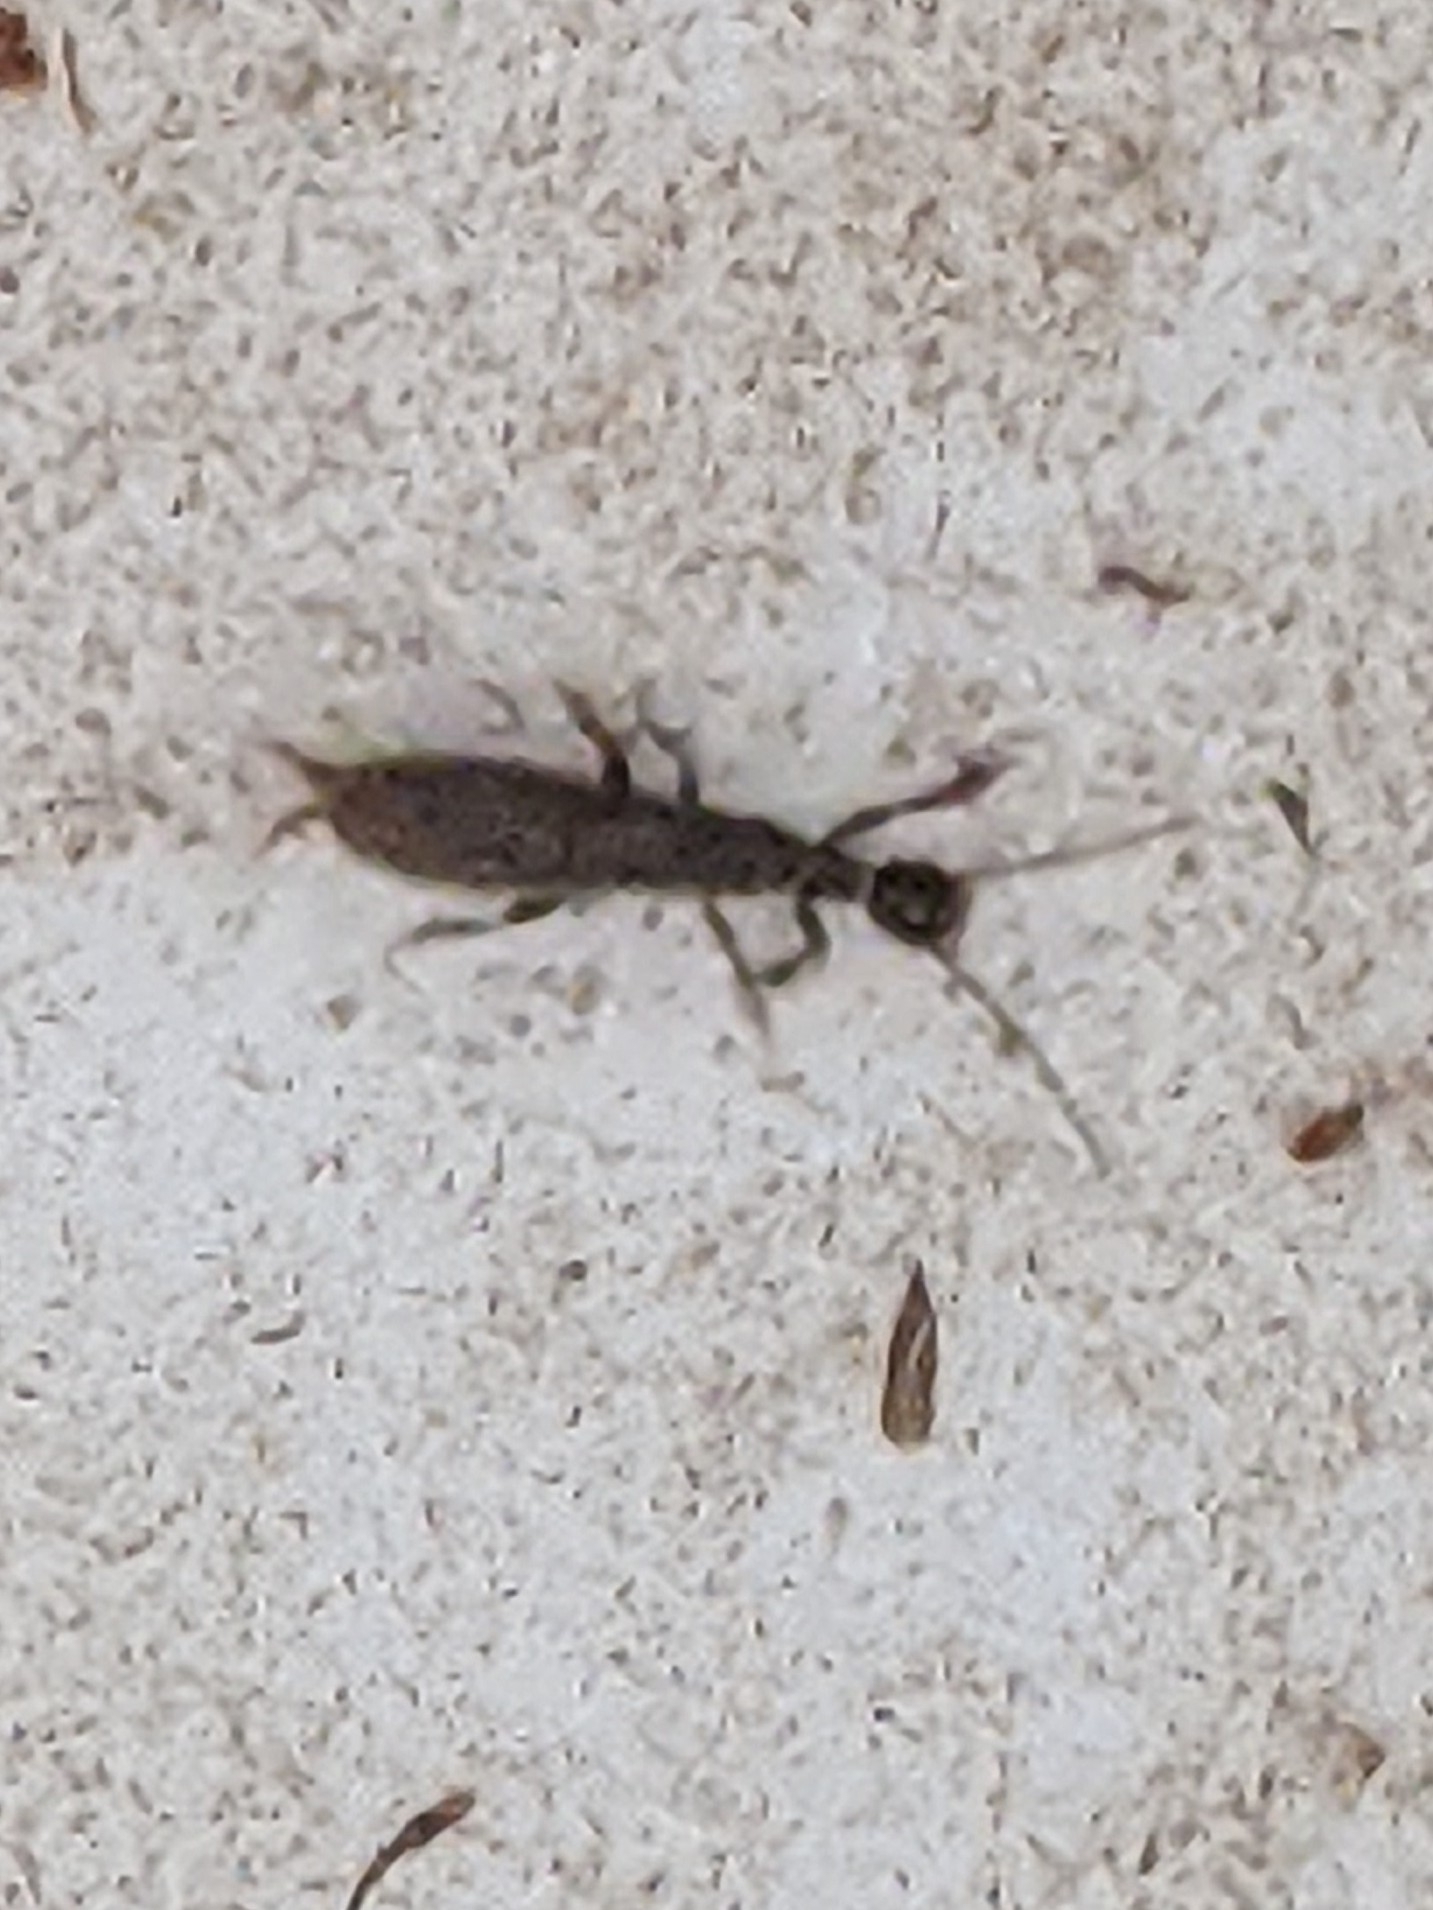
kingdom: Animalia
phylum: Arthropoda
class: Insecta
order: Embioptera
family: Oligotomidae
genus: Oligotoma
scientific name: Oligotoma nigra
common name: Black webspinner
